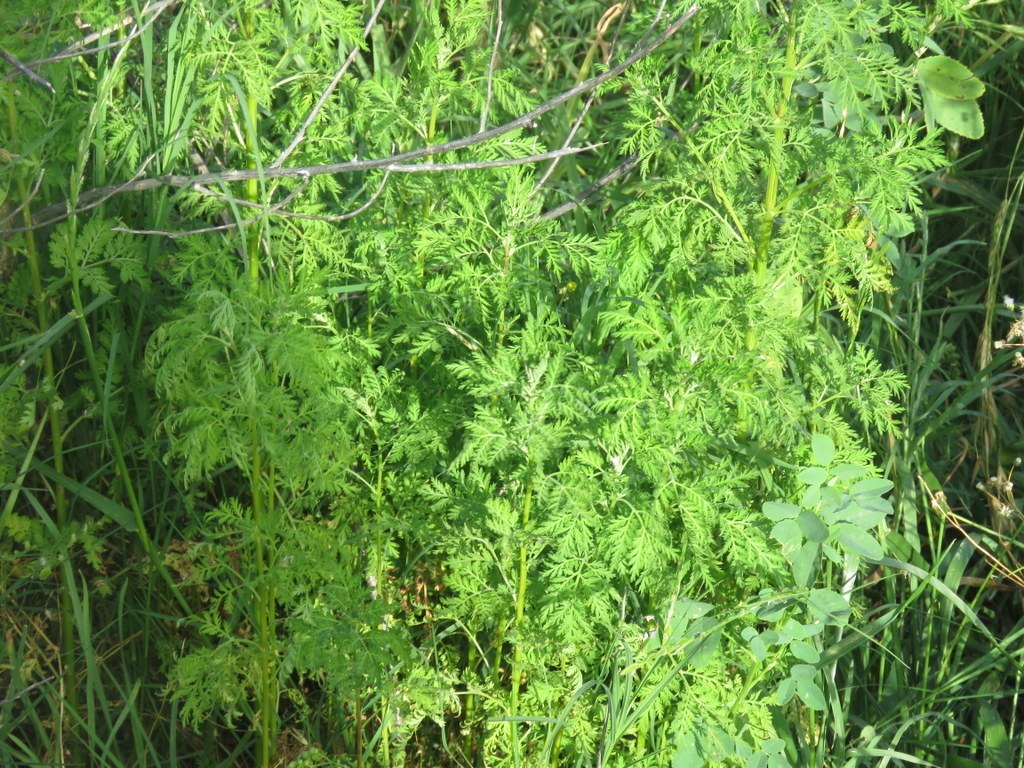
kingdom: Plantae
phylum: Tracheophyta
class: Magnoliopsida
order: Apiales
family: Apiaceae
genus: Conium
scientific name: Conium maculatum
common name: Hemlock
